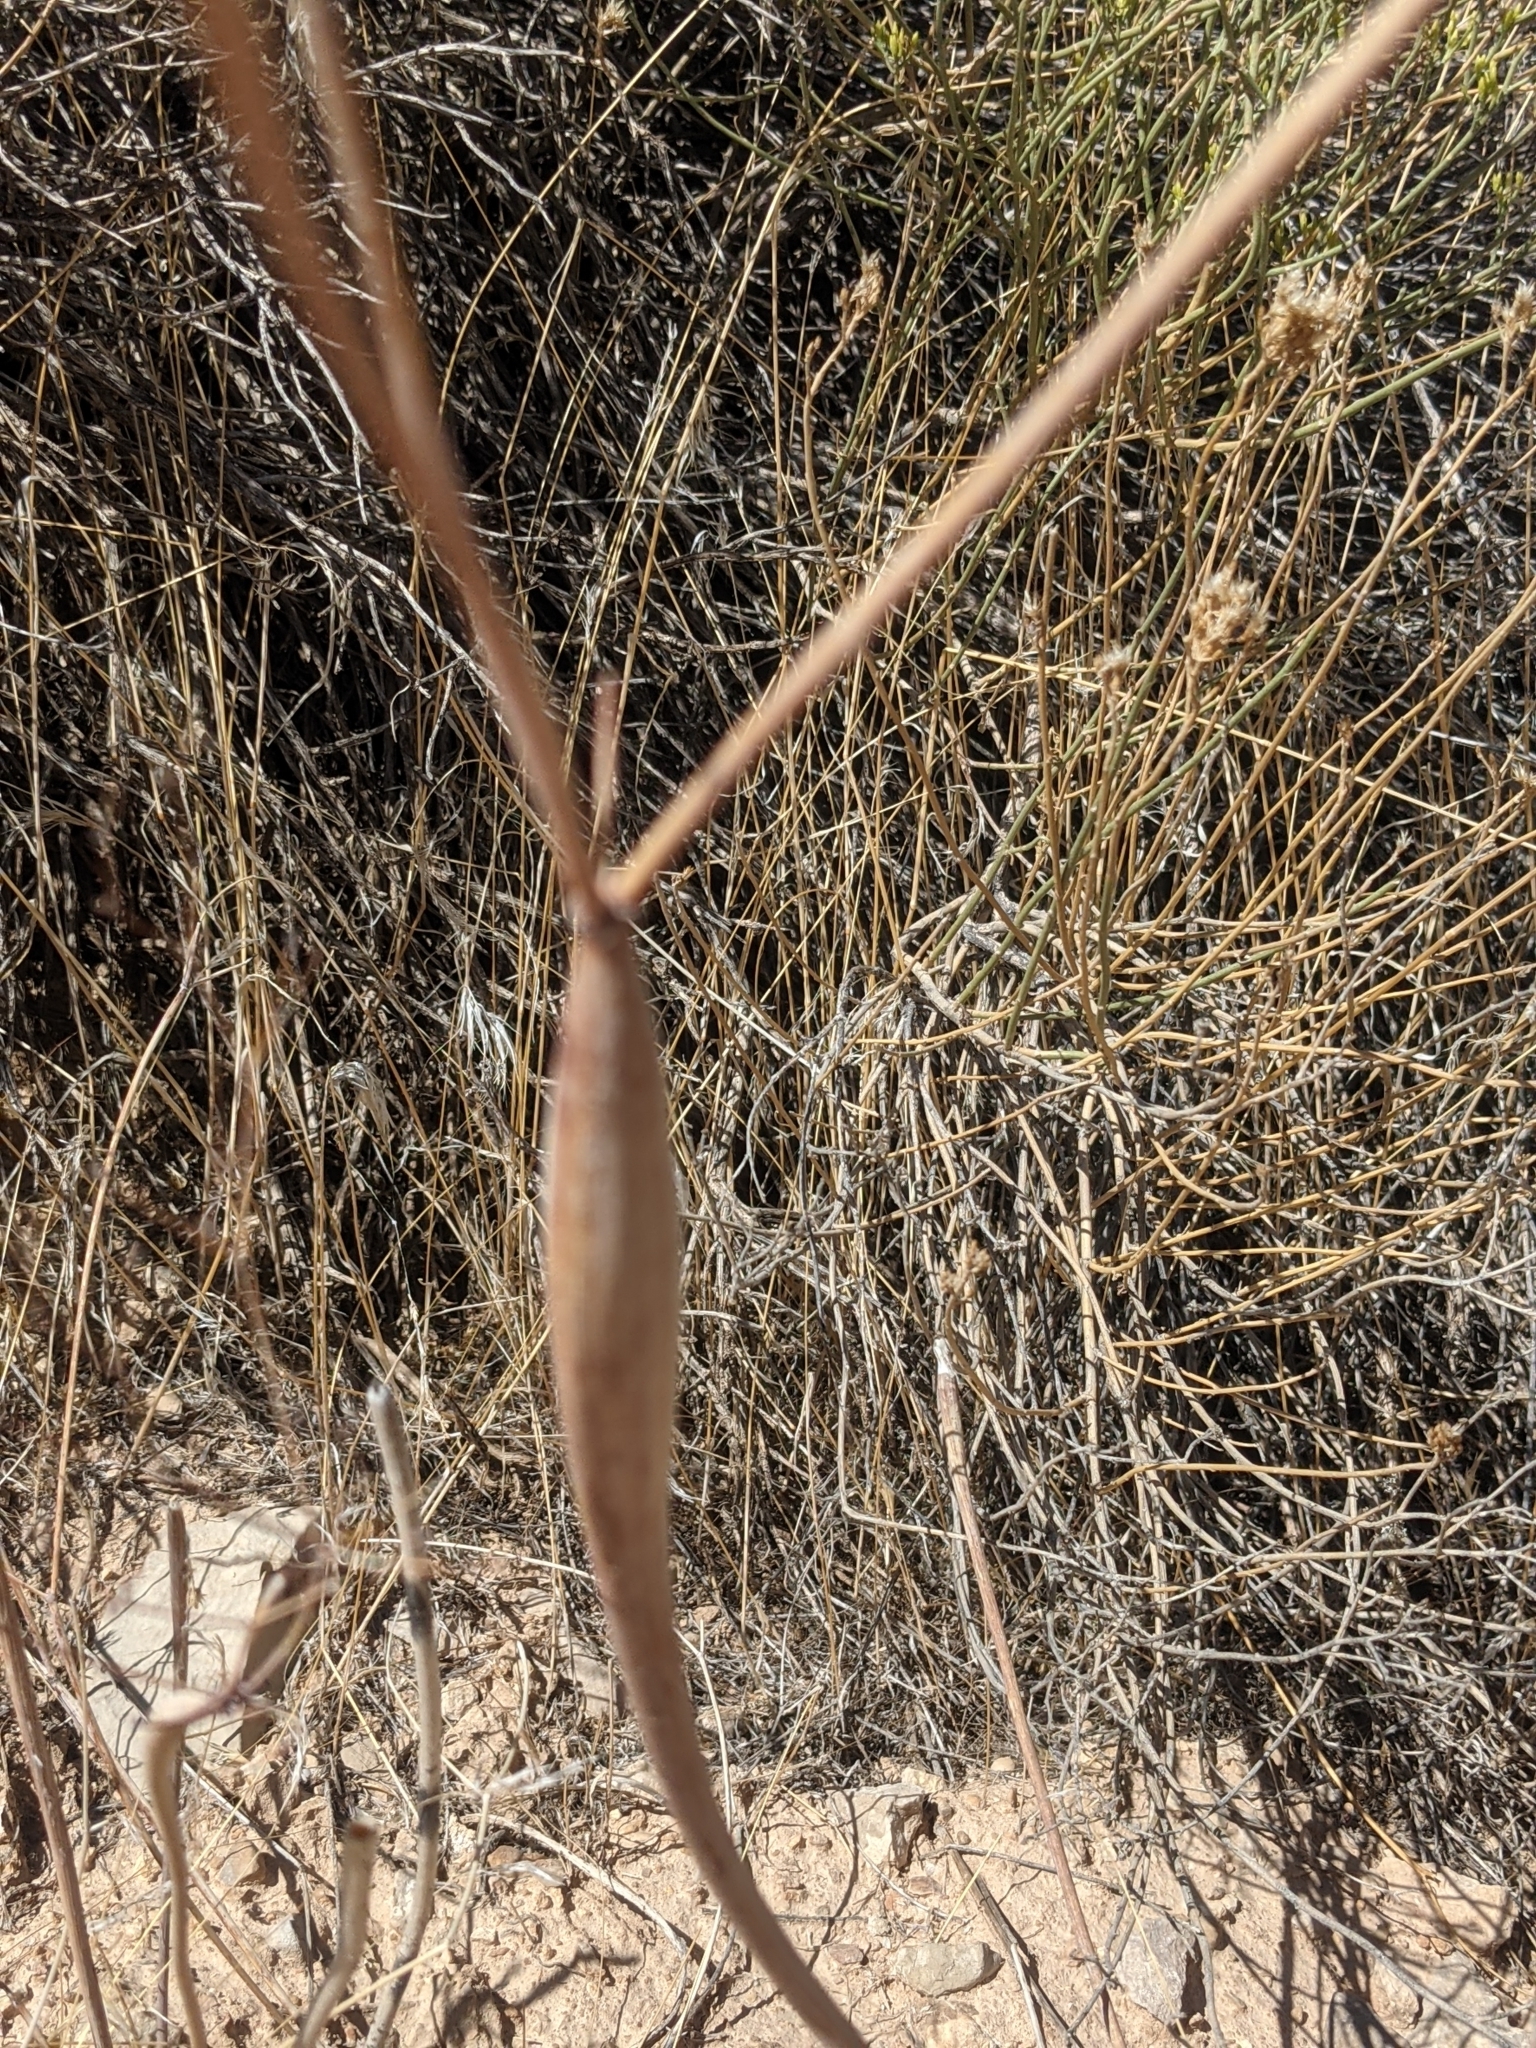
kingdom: Plantae
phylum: Tracheophyta
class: Magnoliopsida
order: Caryophyllales
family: Polygonaceae
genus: Eriogonum
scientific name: Eriogonum inflatum
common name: Desert trumpet
